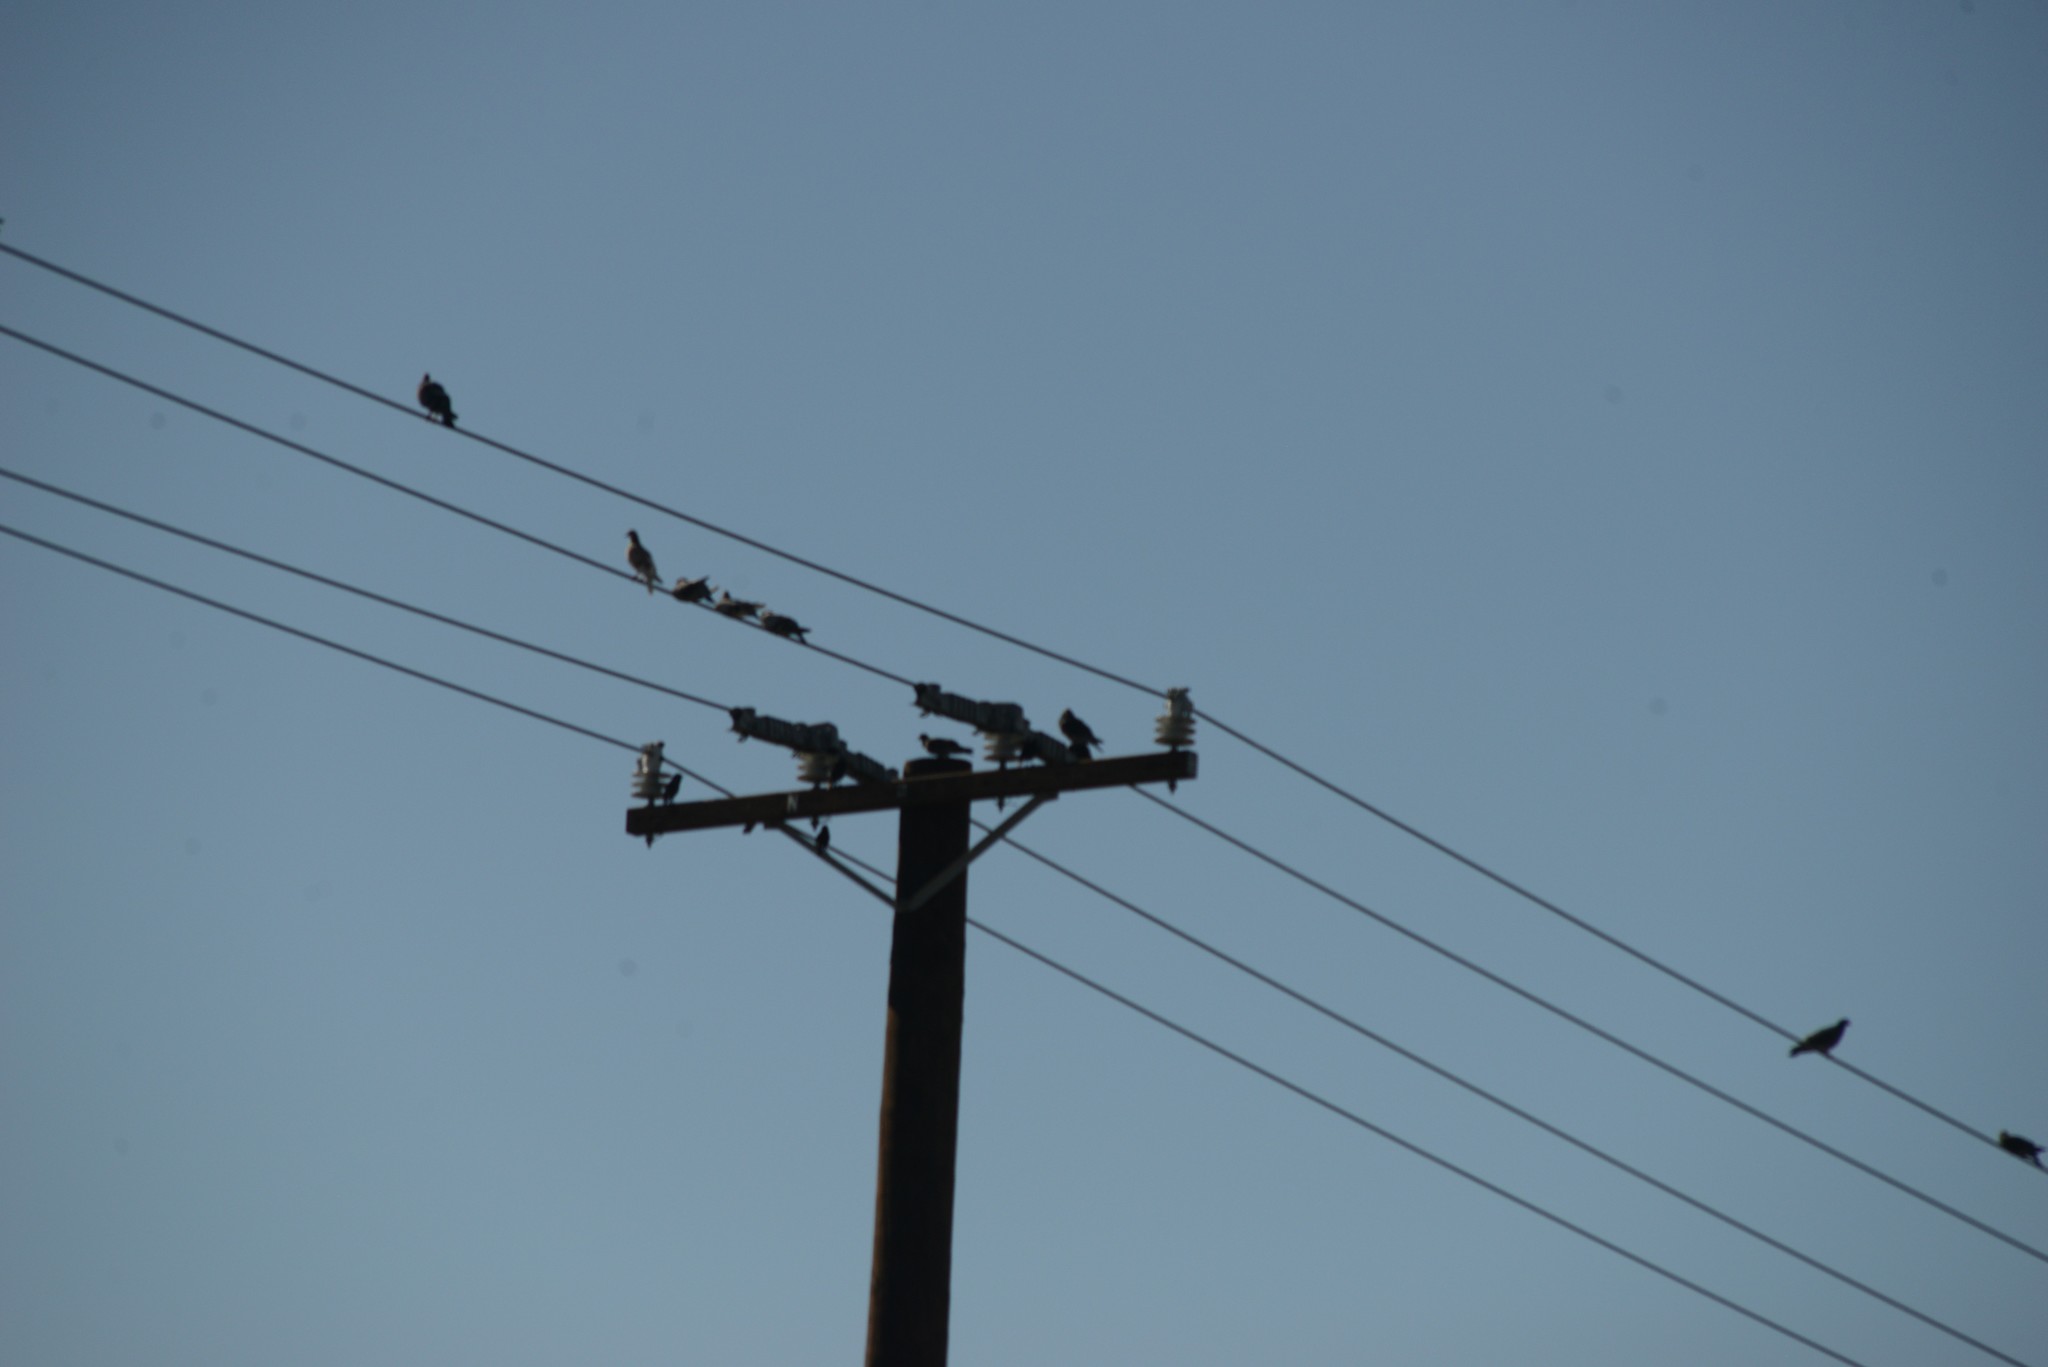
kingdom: Animalia
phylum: Chordata
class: Aves
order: Columbiformes
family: Columbidae
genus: Columba
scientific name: Columba livia
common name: Rock pigeon
